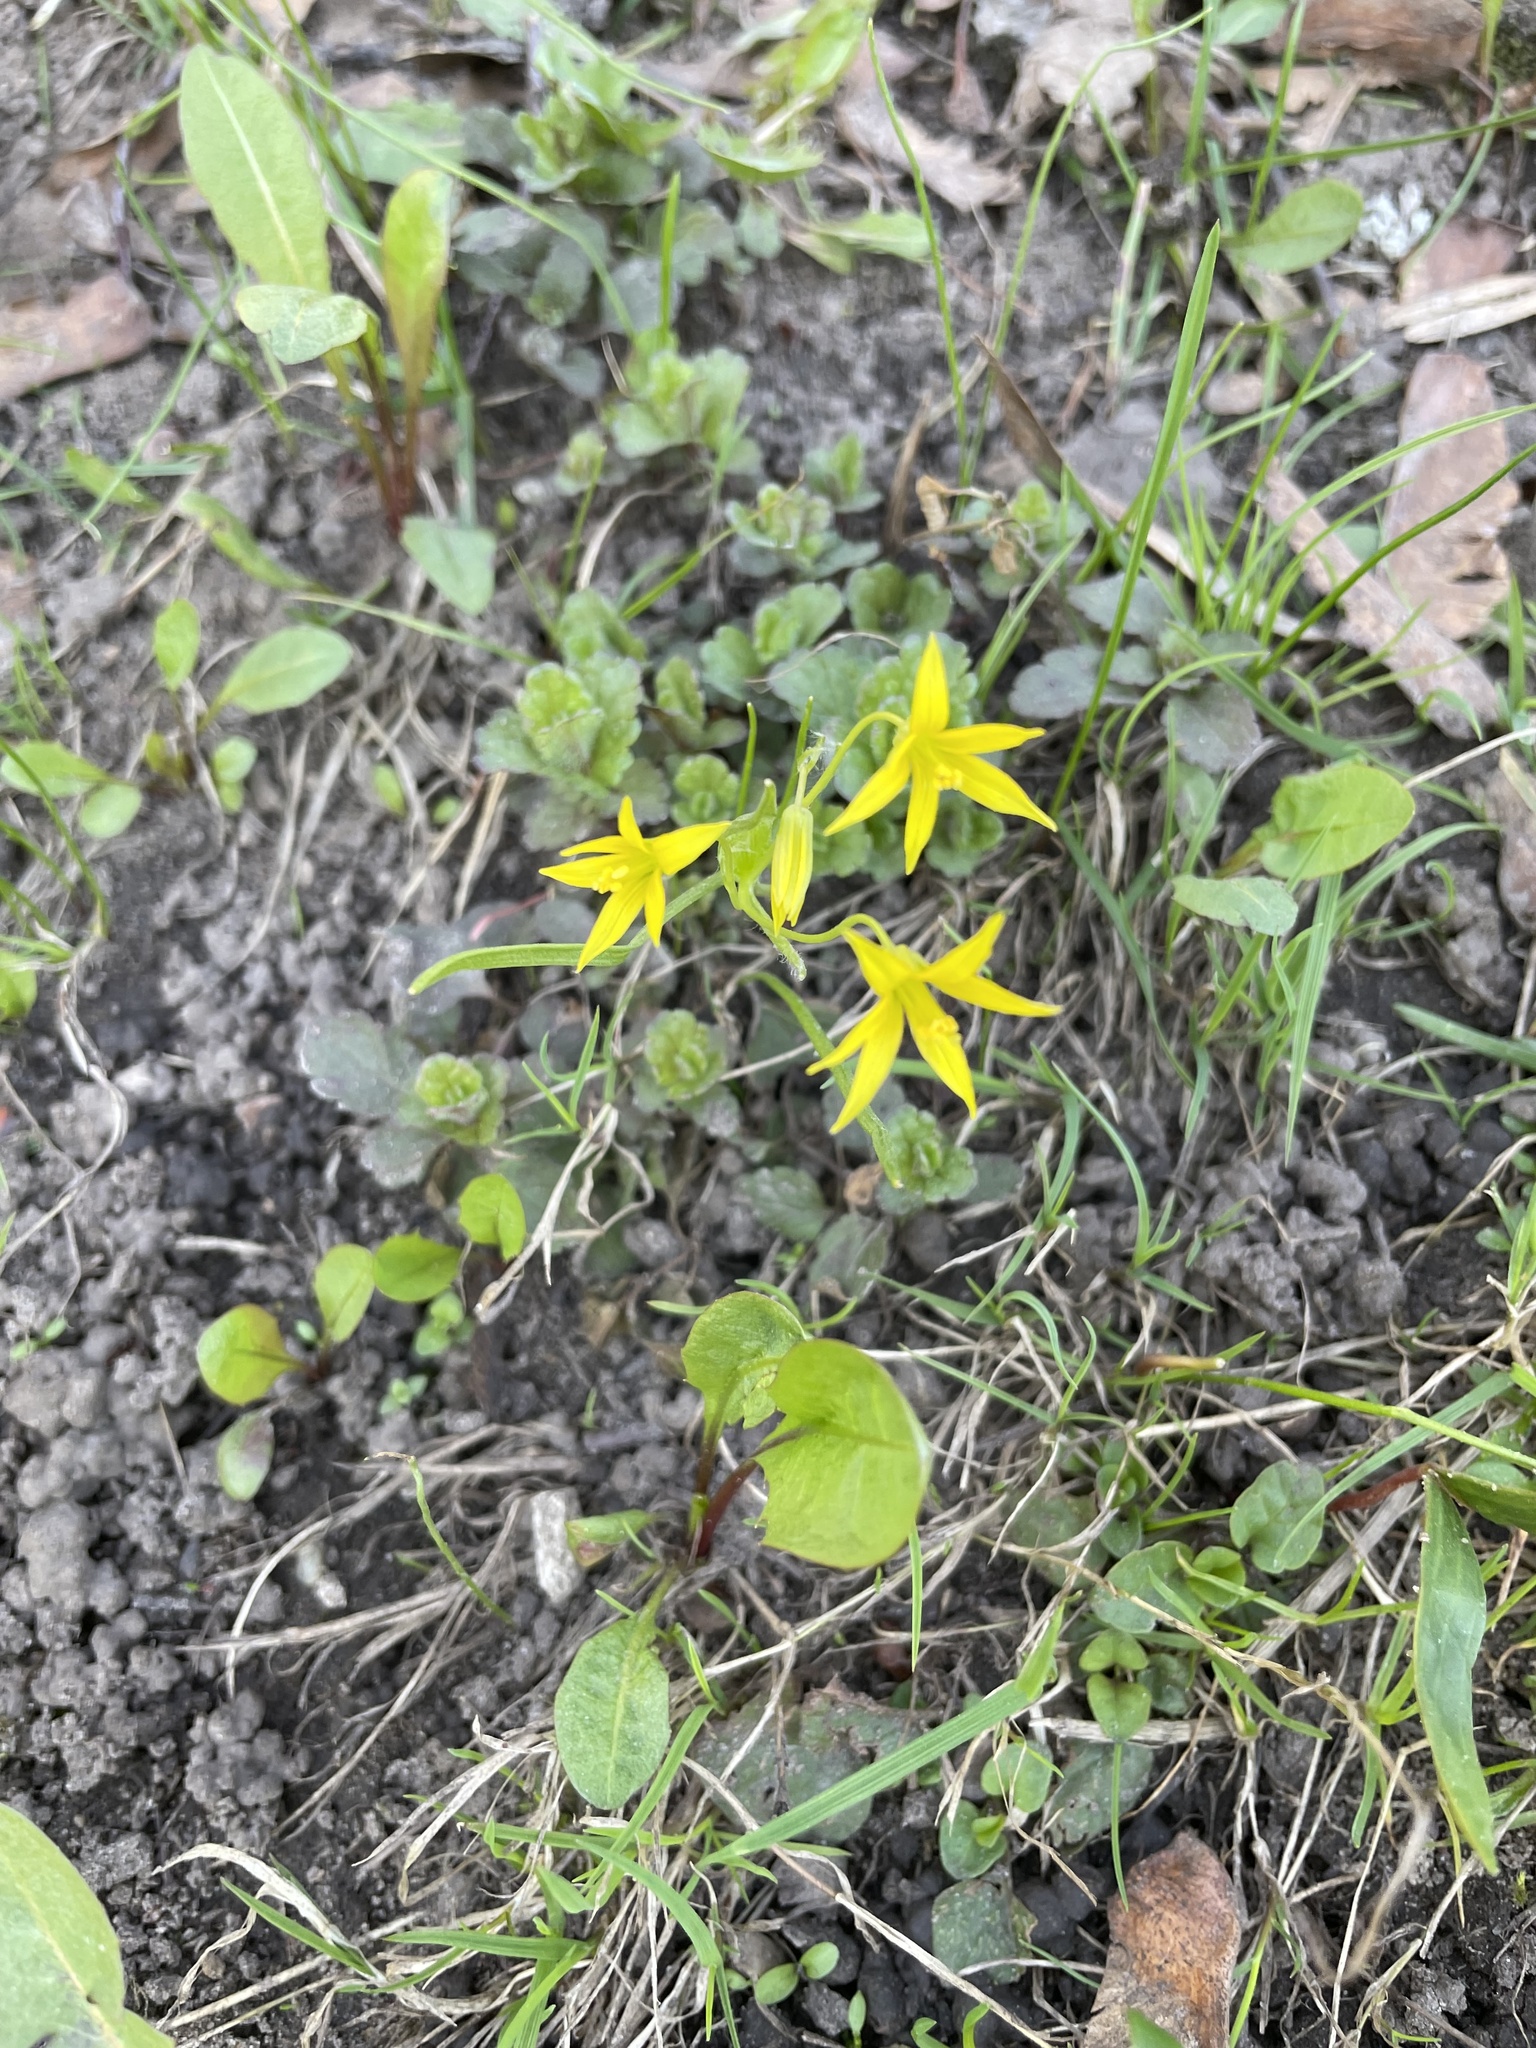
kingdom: Plantae
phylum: Tracheophyta
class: Liliopsida
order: Liliales
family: Liliaceae
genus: Gagea
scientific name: Gagea minima
